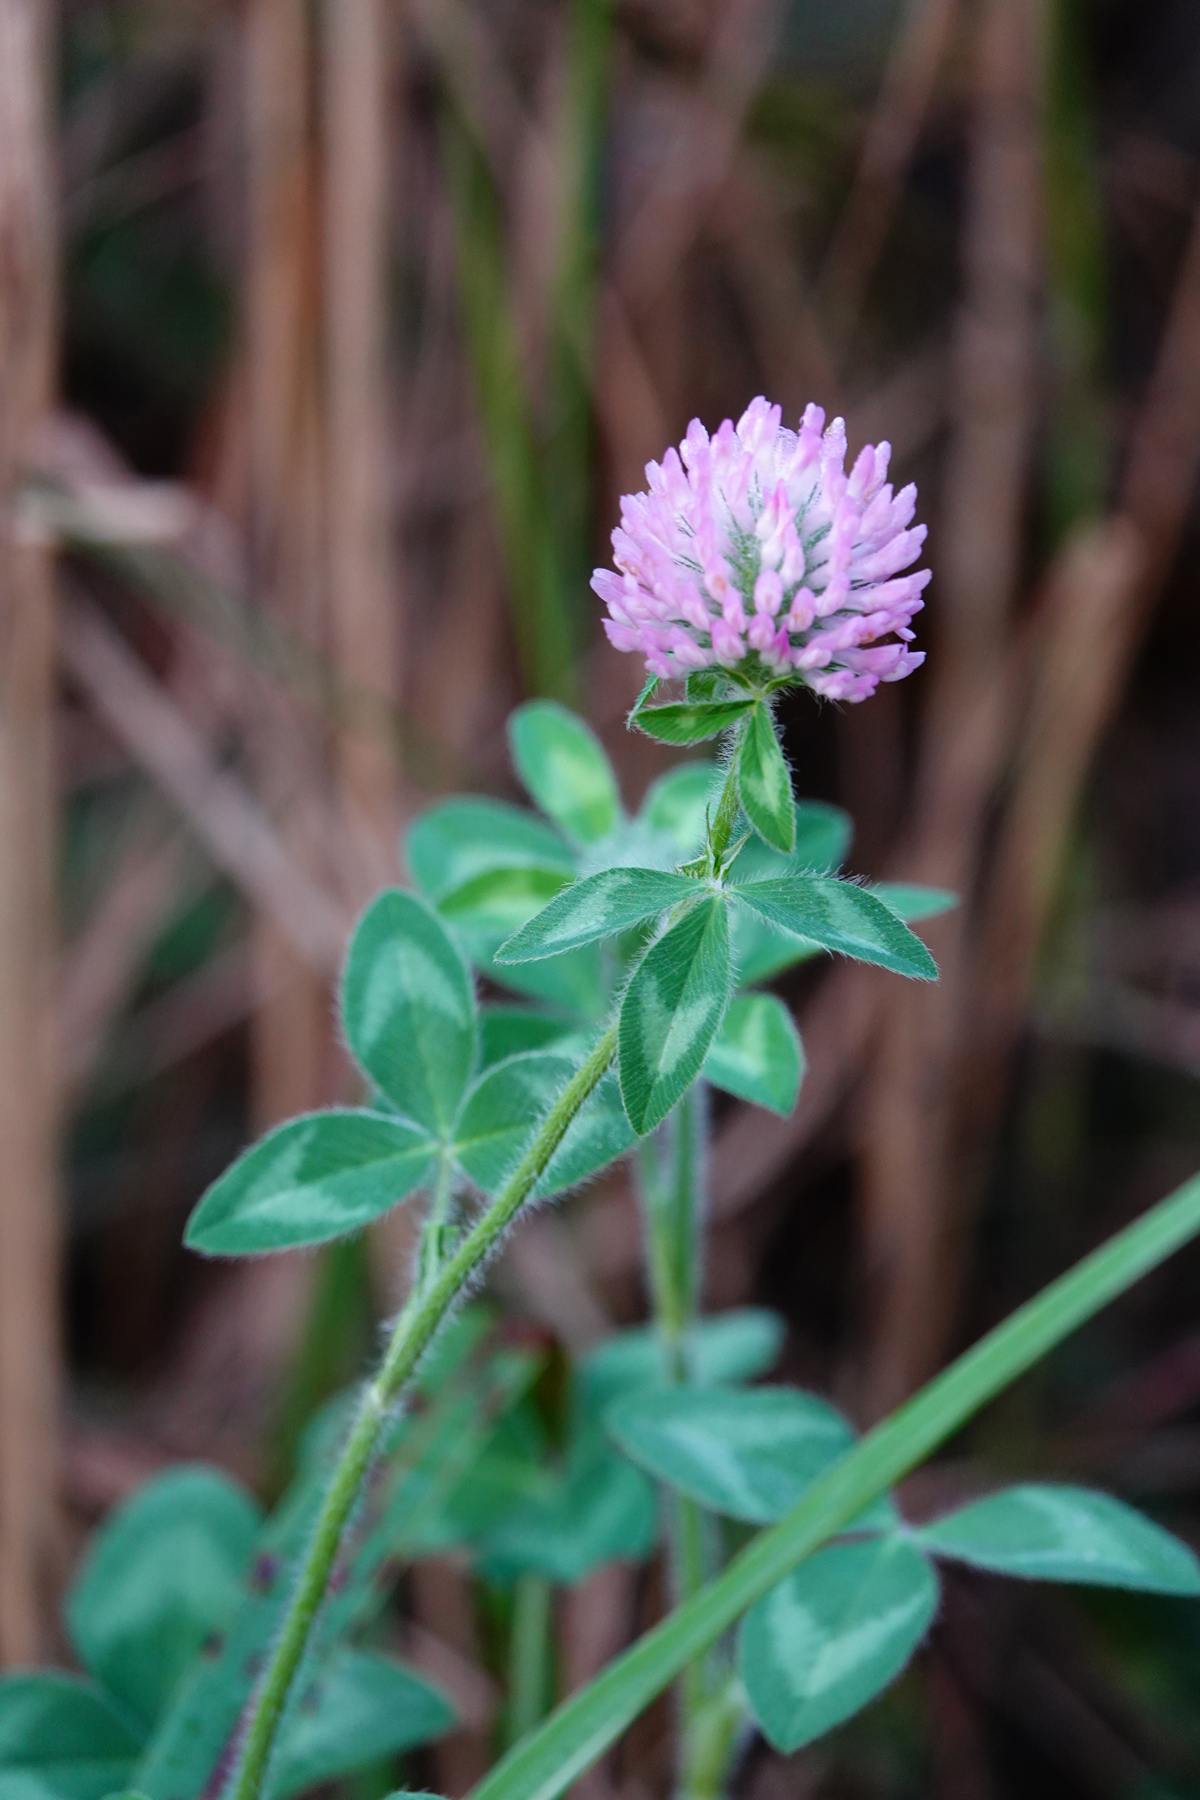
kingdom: Plantae
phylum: Tracheophyta
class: Magnoliopsida
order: Fabales
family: Fabaceae
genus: Trifolium
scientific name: Trifolium pratense
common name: Red clover
